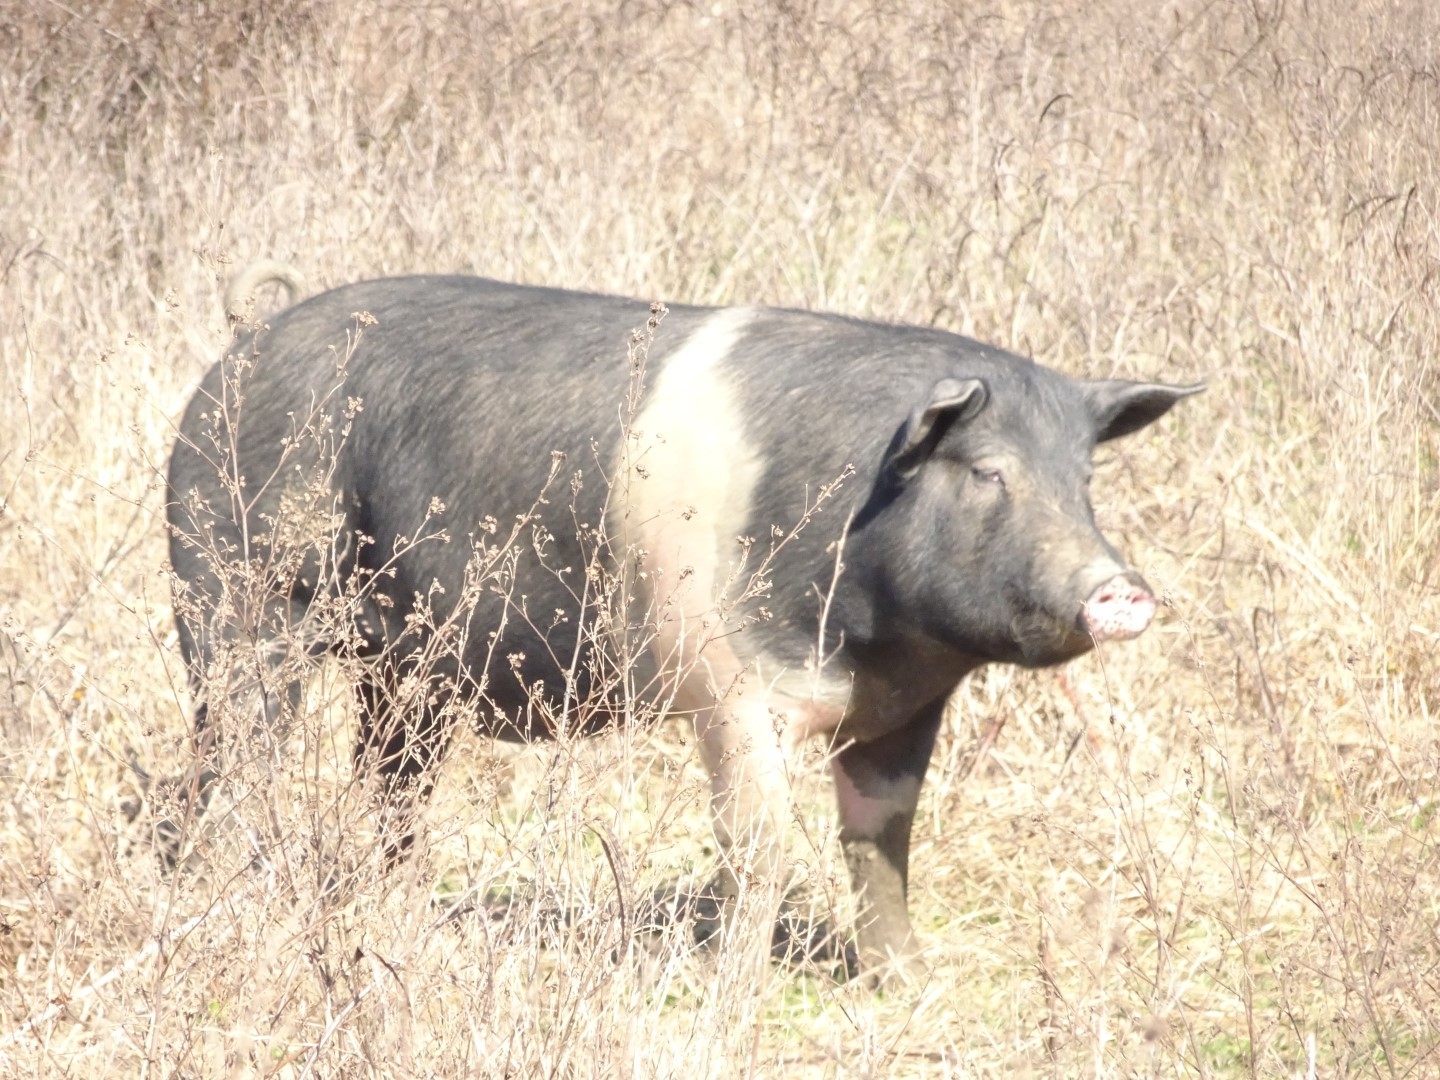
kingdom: Animalia
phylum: Chordata
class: Mammalia
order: Artiodactyla
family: Suidae
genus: Sus
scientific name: Sus scrofa
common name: Wild boar
